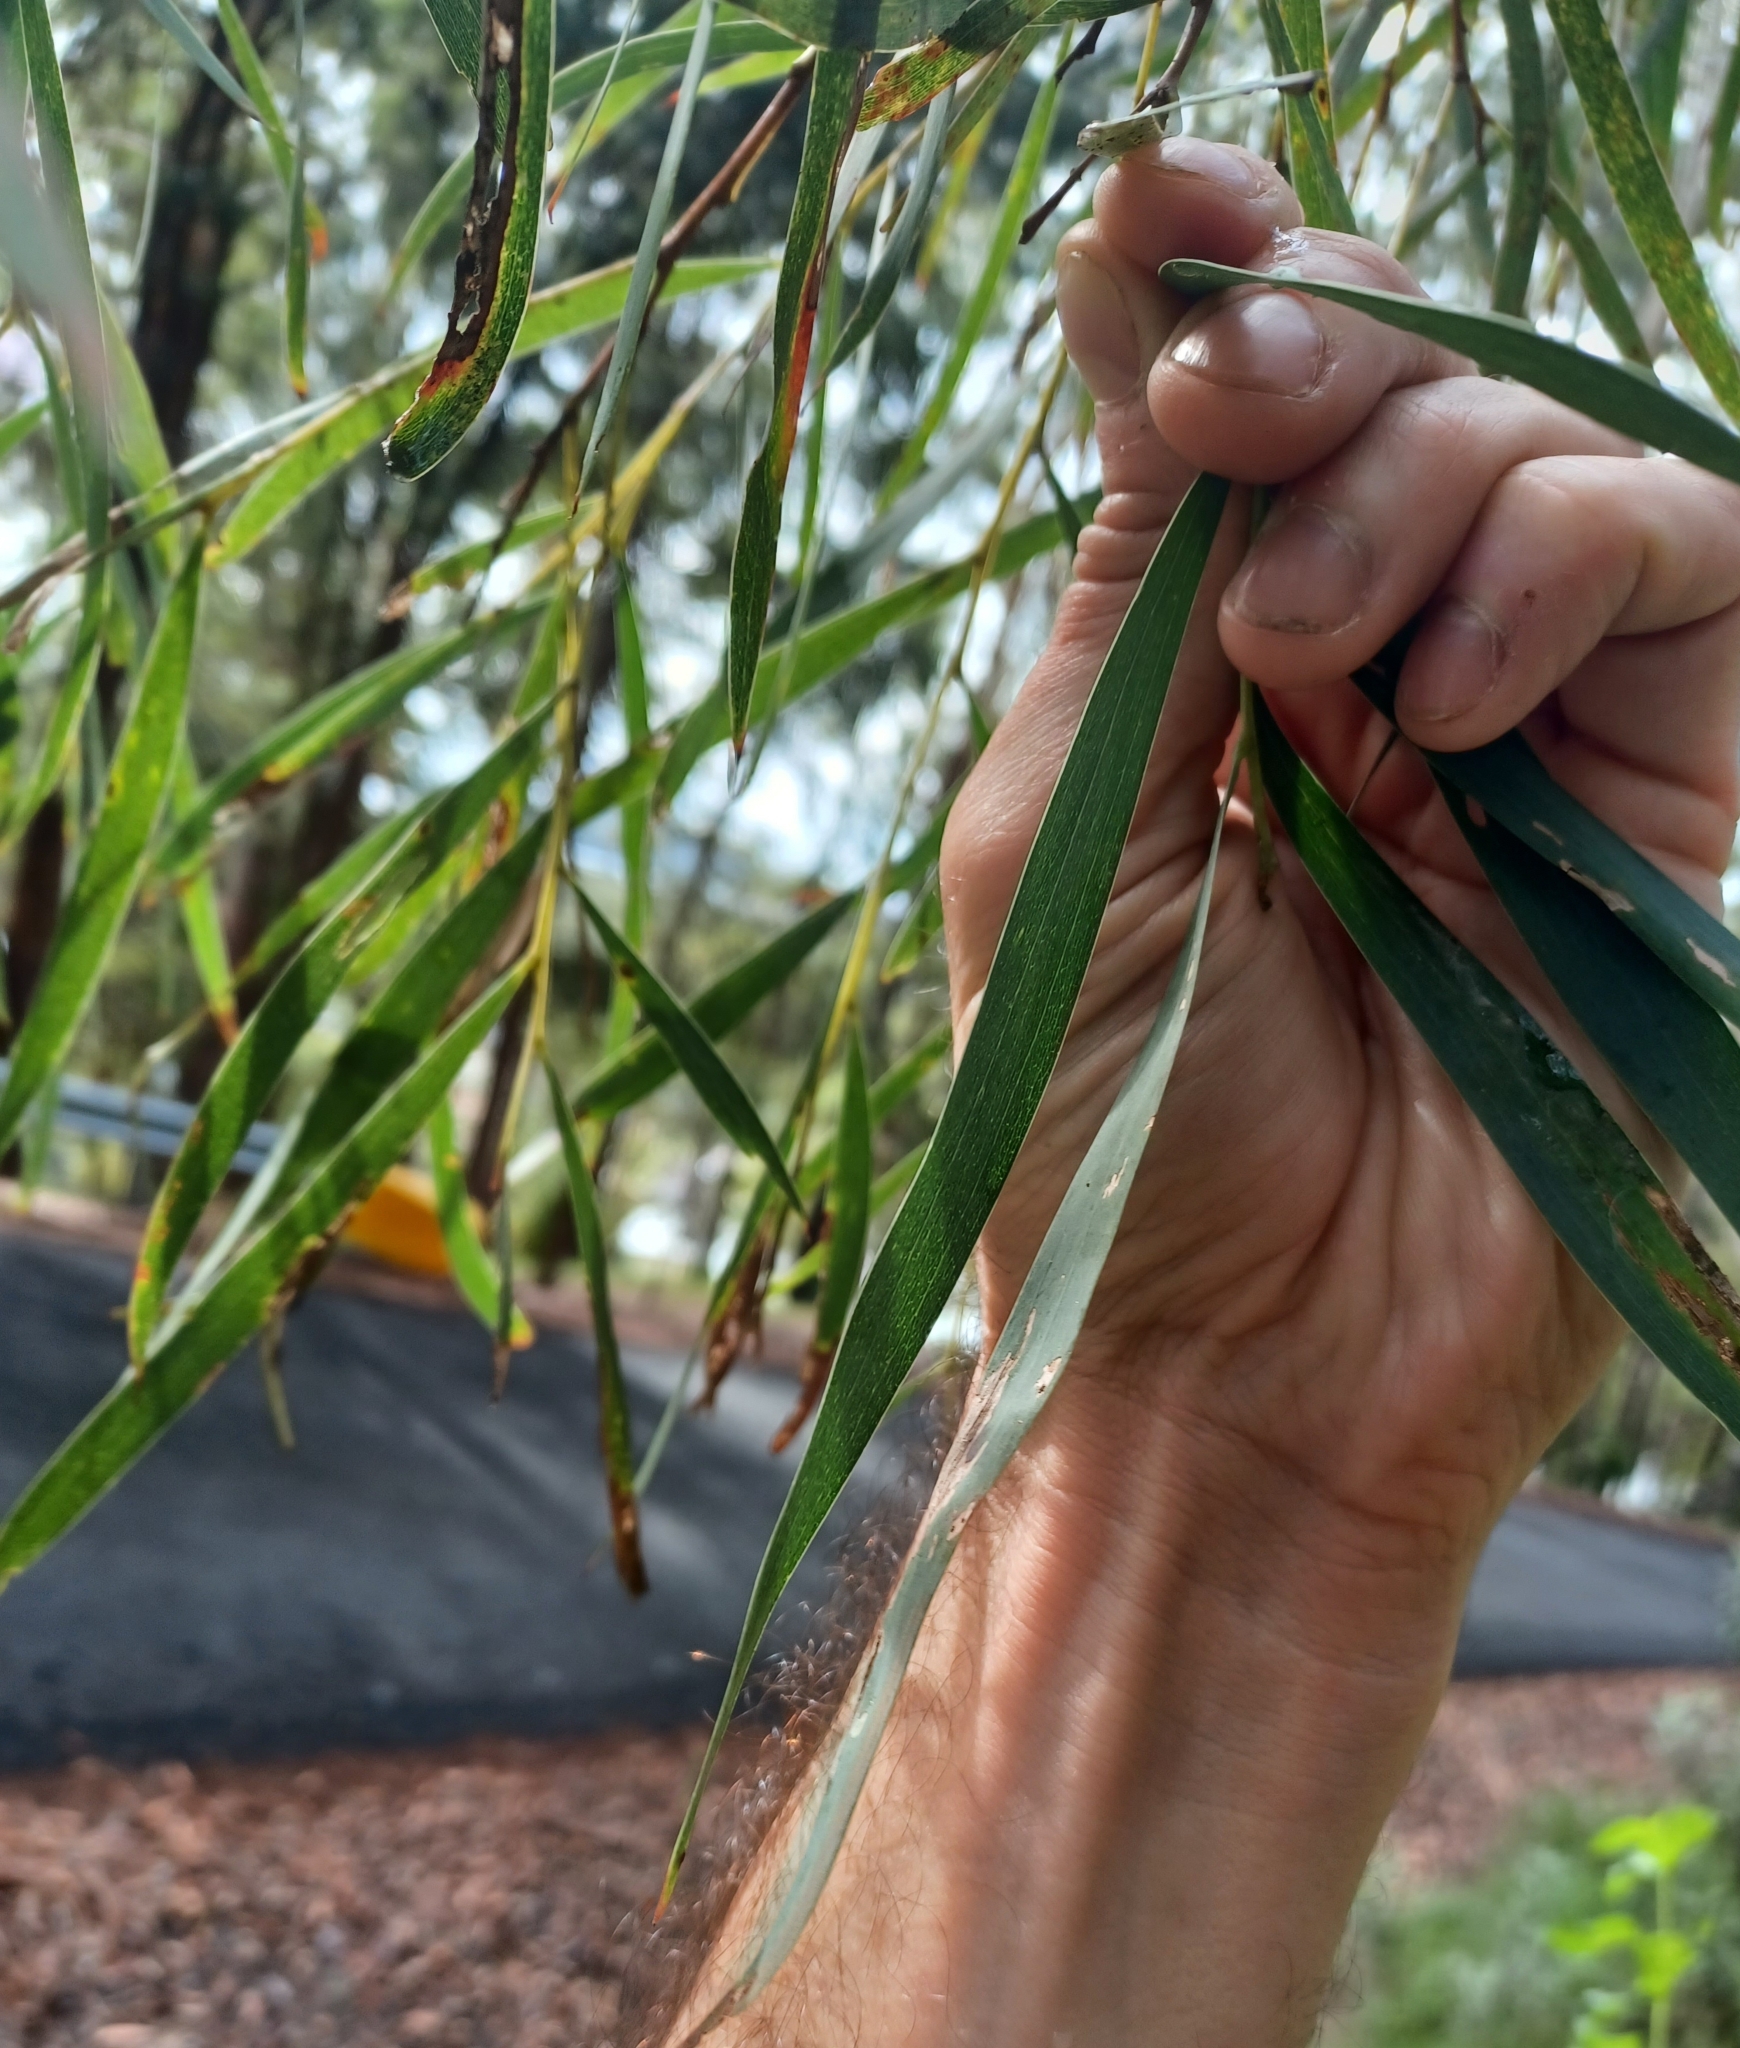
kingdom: Plantae
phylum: Tracheophyta
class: Magnoliopsida
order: Fabales
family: Fabaceae
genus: Acacia
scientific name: Acacia courtii
